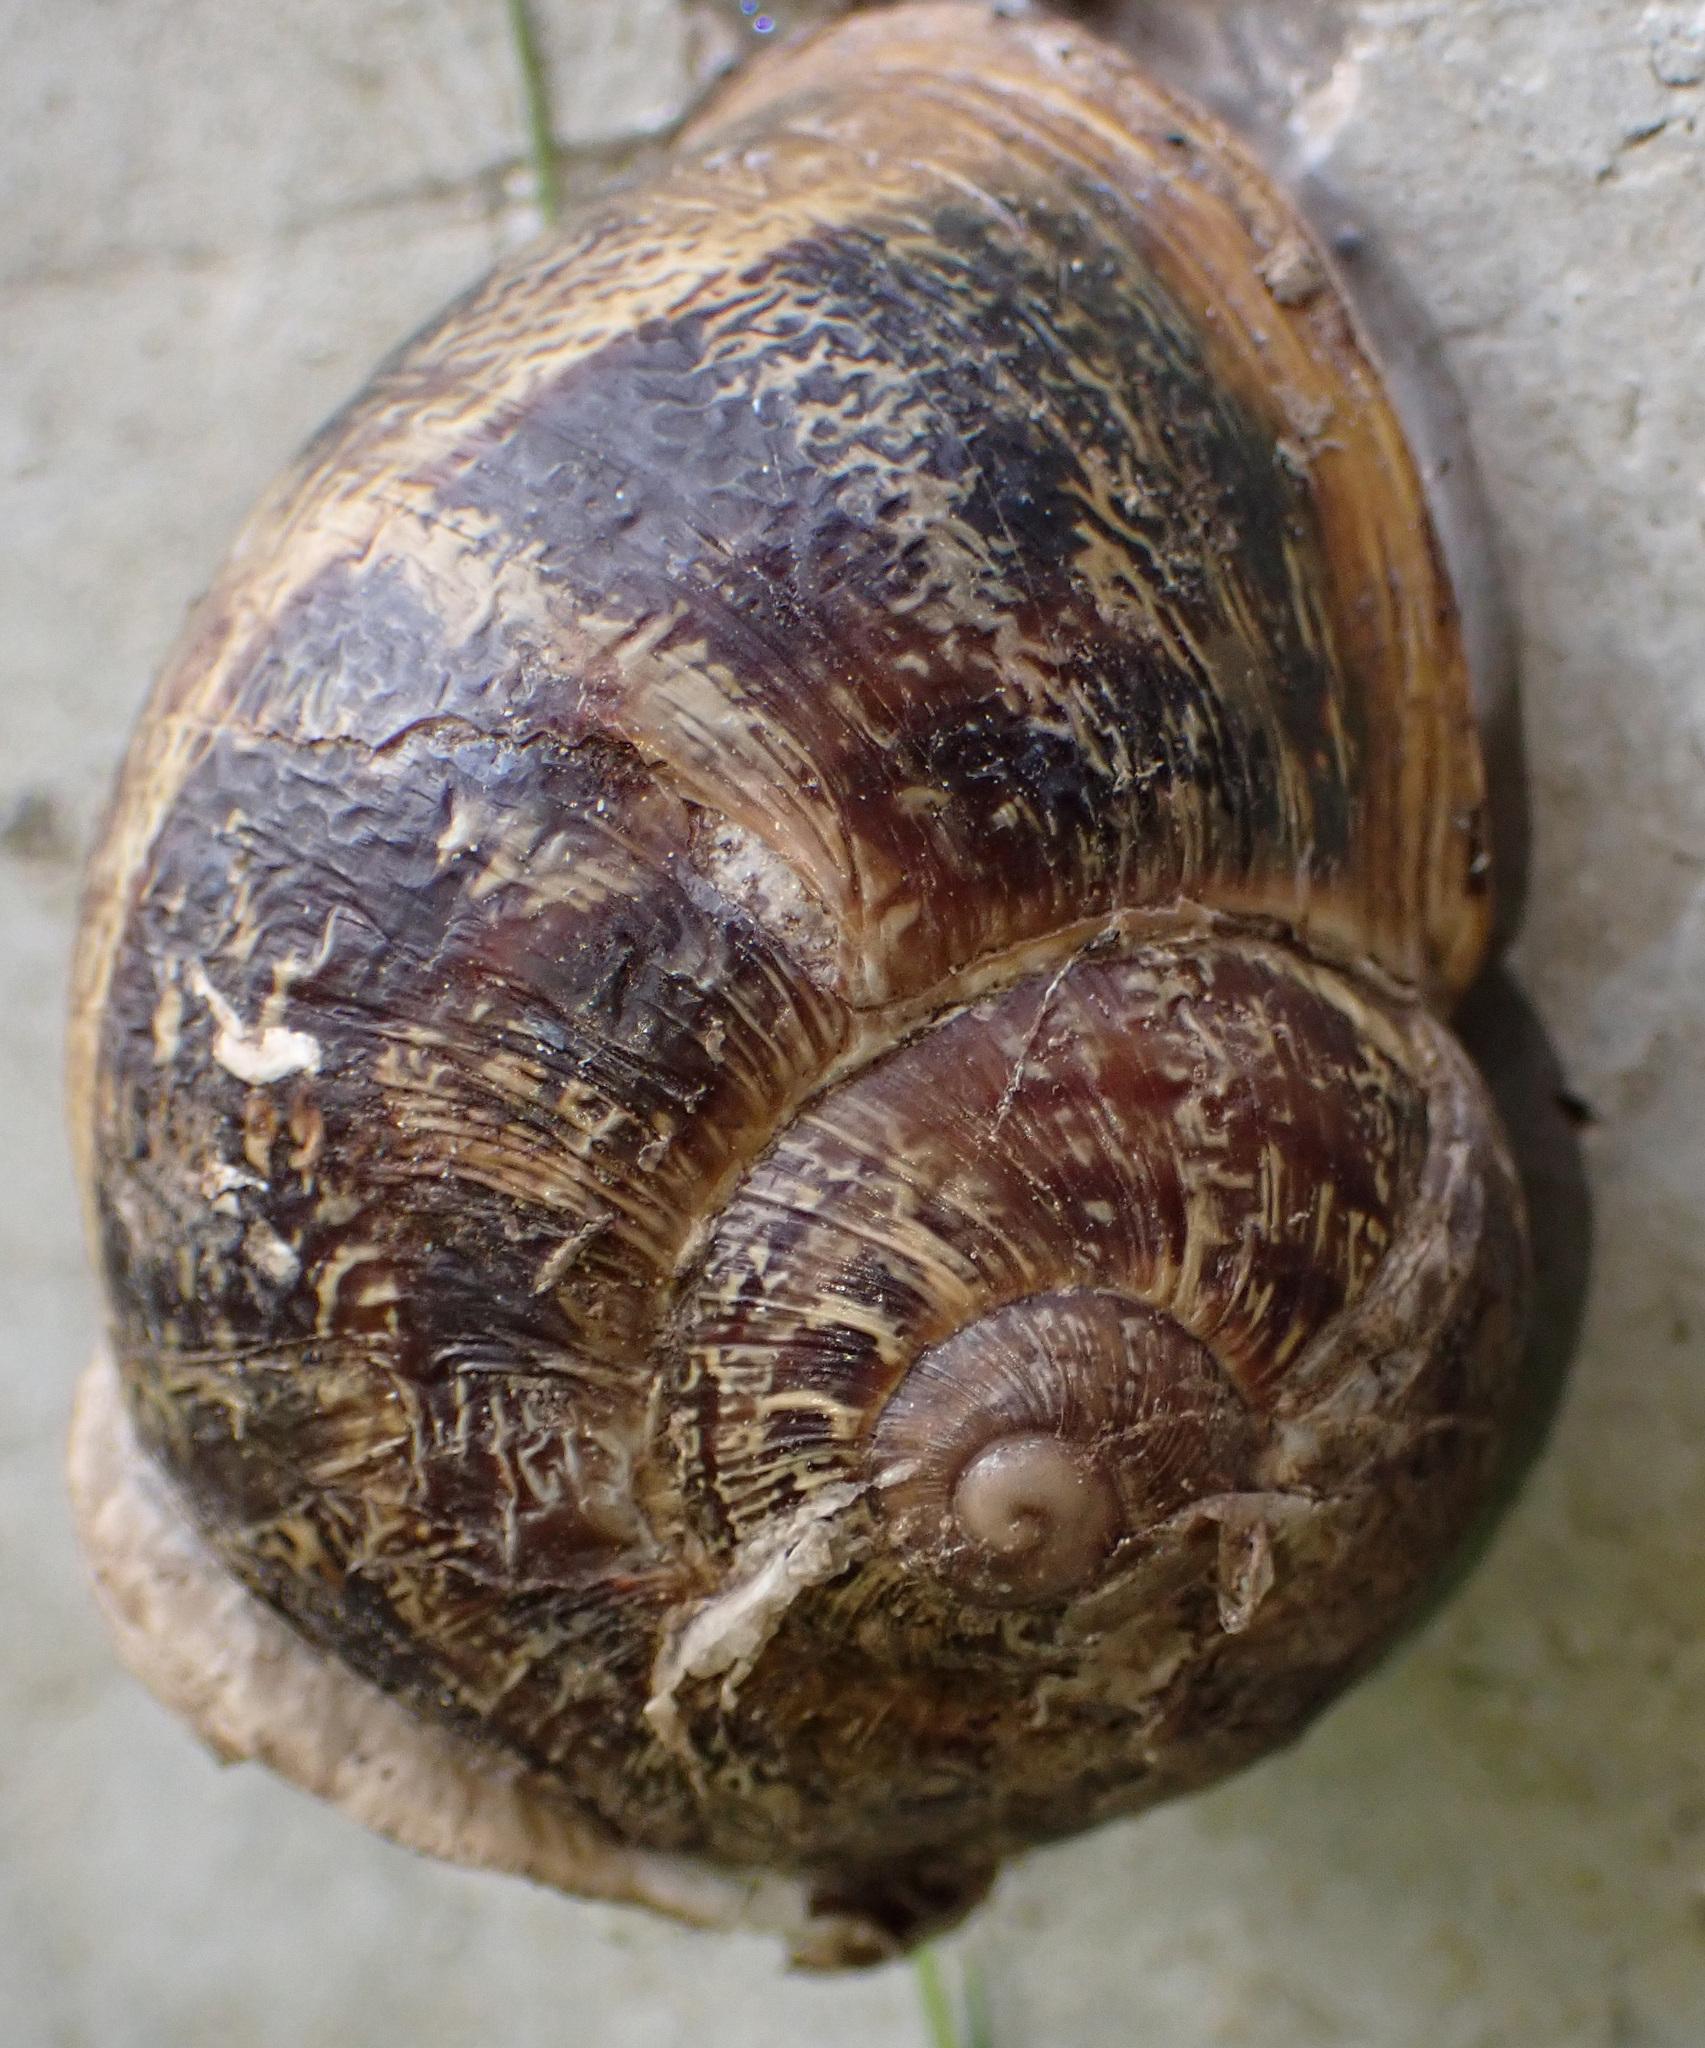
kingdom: Animalia
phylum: Mollusca
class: Gastropoda
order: Stylommatophora
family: Helicidae
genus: Cornu
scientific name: Cornu aspersum
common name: Brown garden snail
